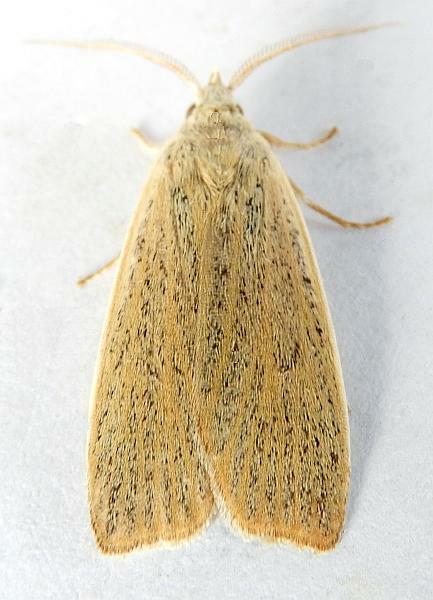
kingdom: Animalia
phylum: Arthropoda
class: Insecta
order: Lepidoptera
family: Erebidae
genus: Palpidia
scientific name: Palpidia pallidior
